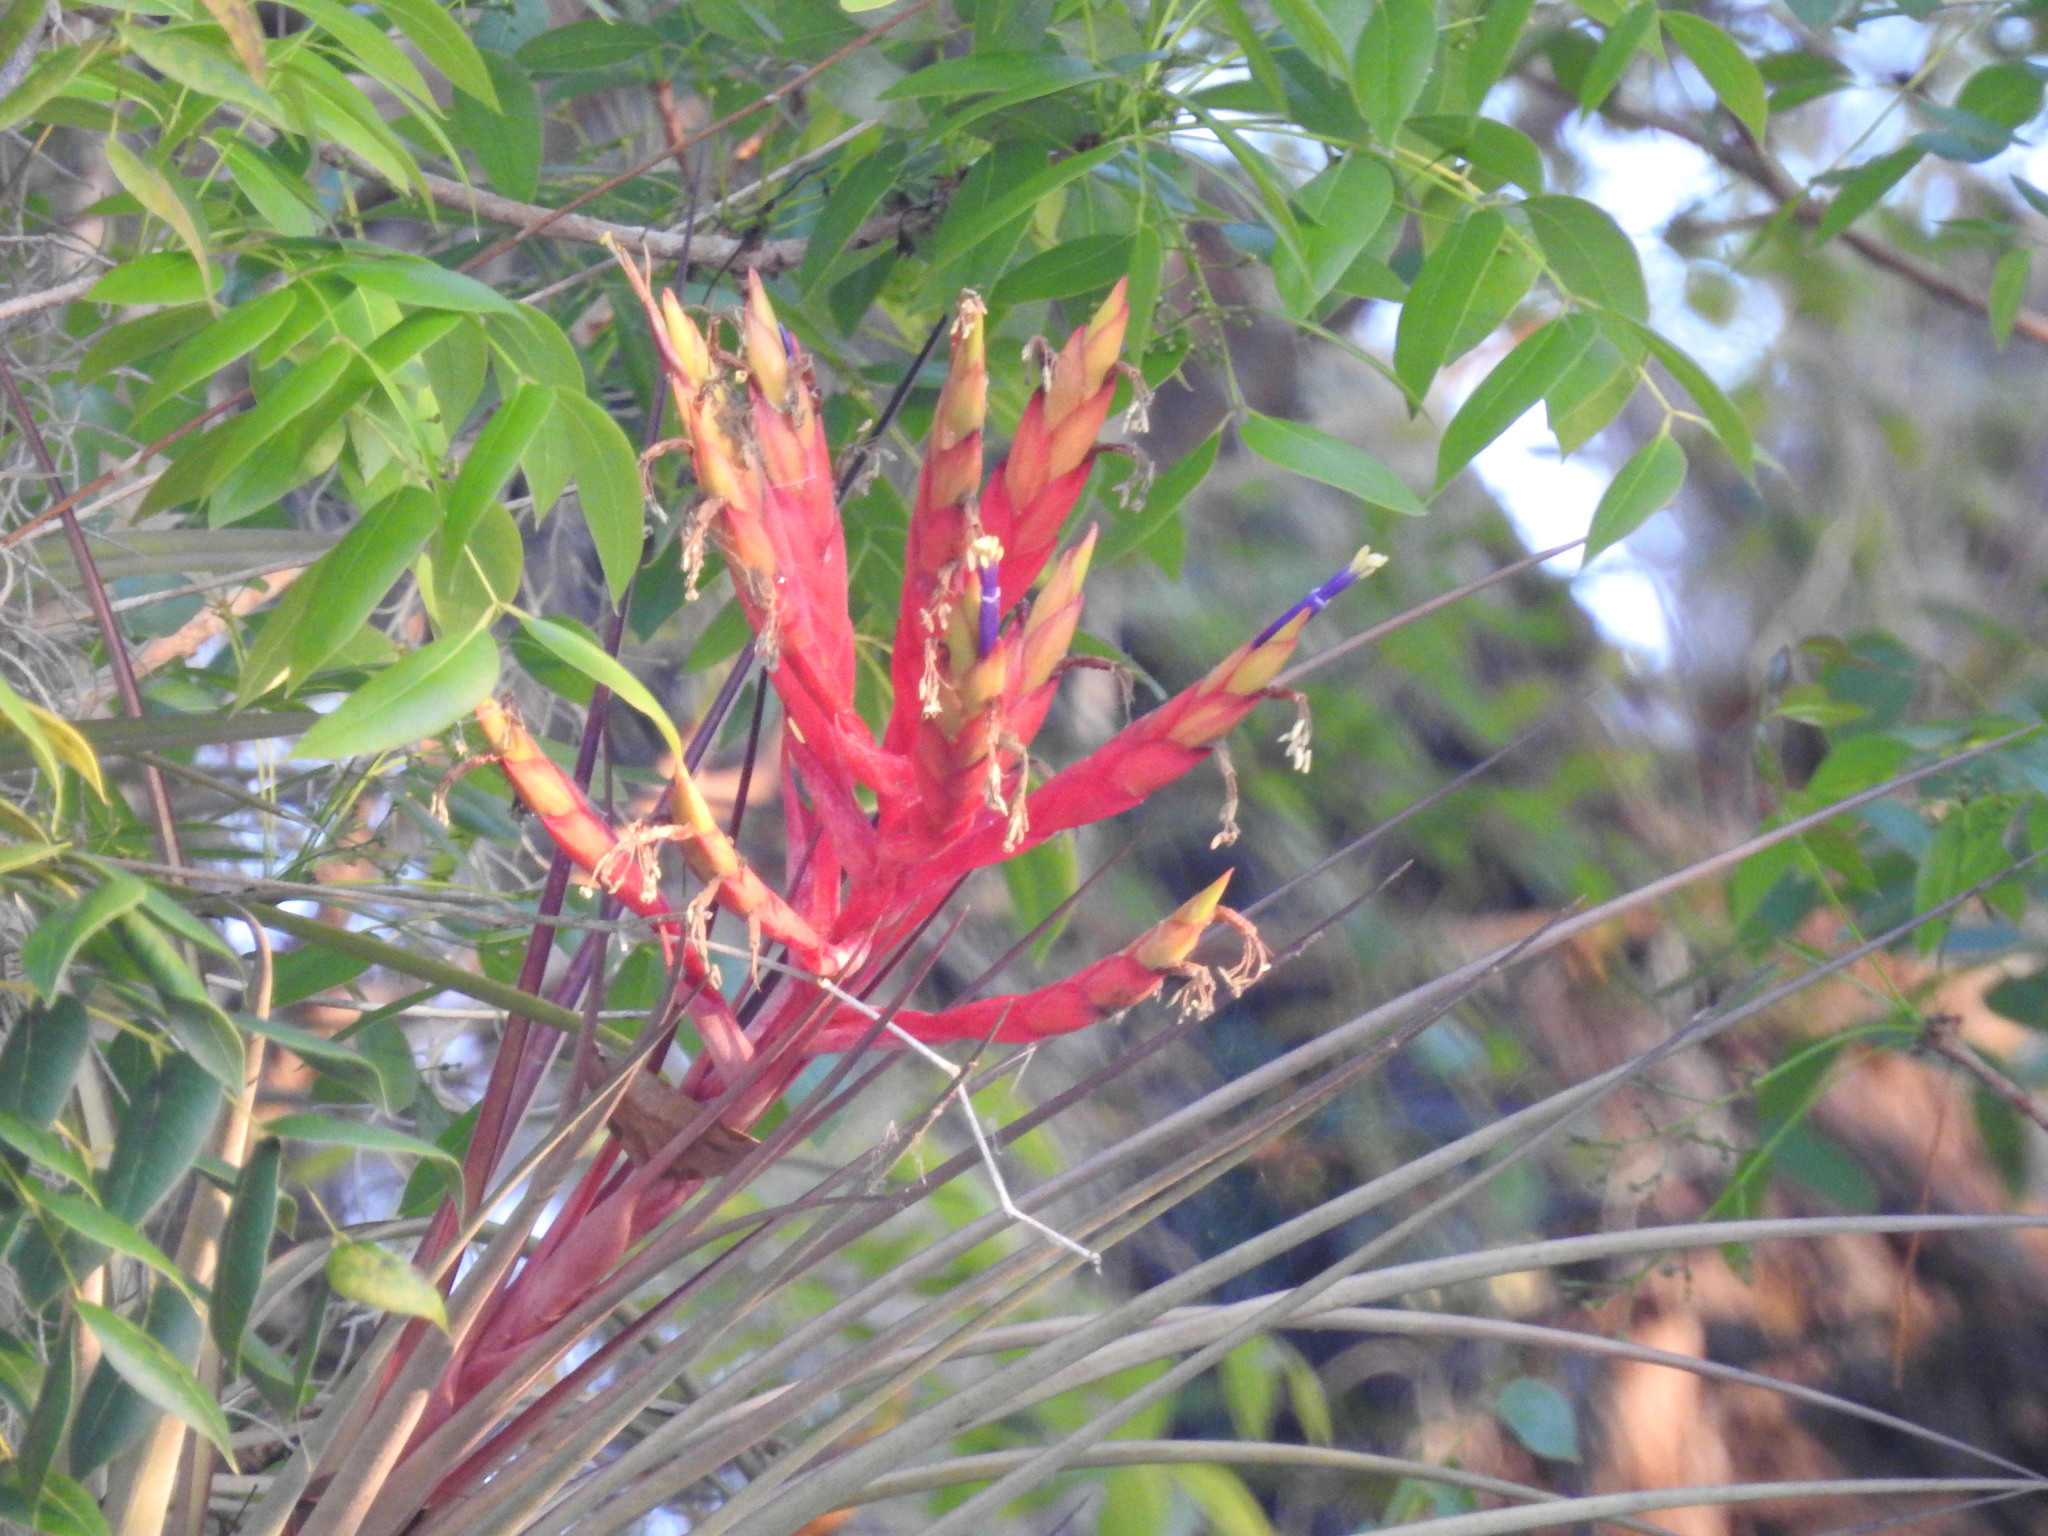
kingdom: Plantae
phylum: Tracheophyta
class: Liliopsida
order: Poales
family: Bromeliaceae
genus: Tillandsia
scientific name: Tillandsia fasciculata
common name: Giant airplant
